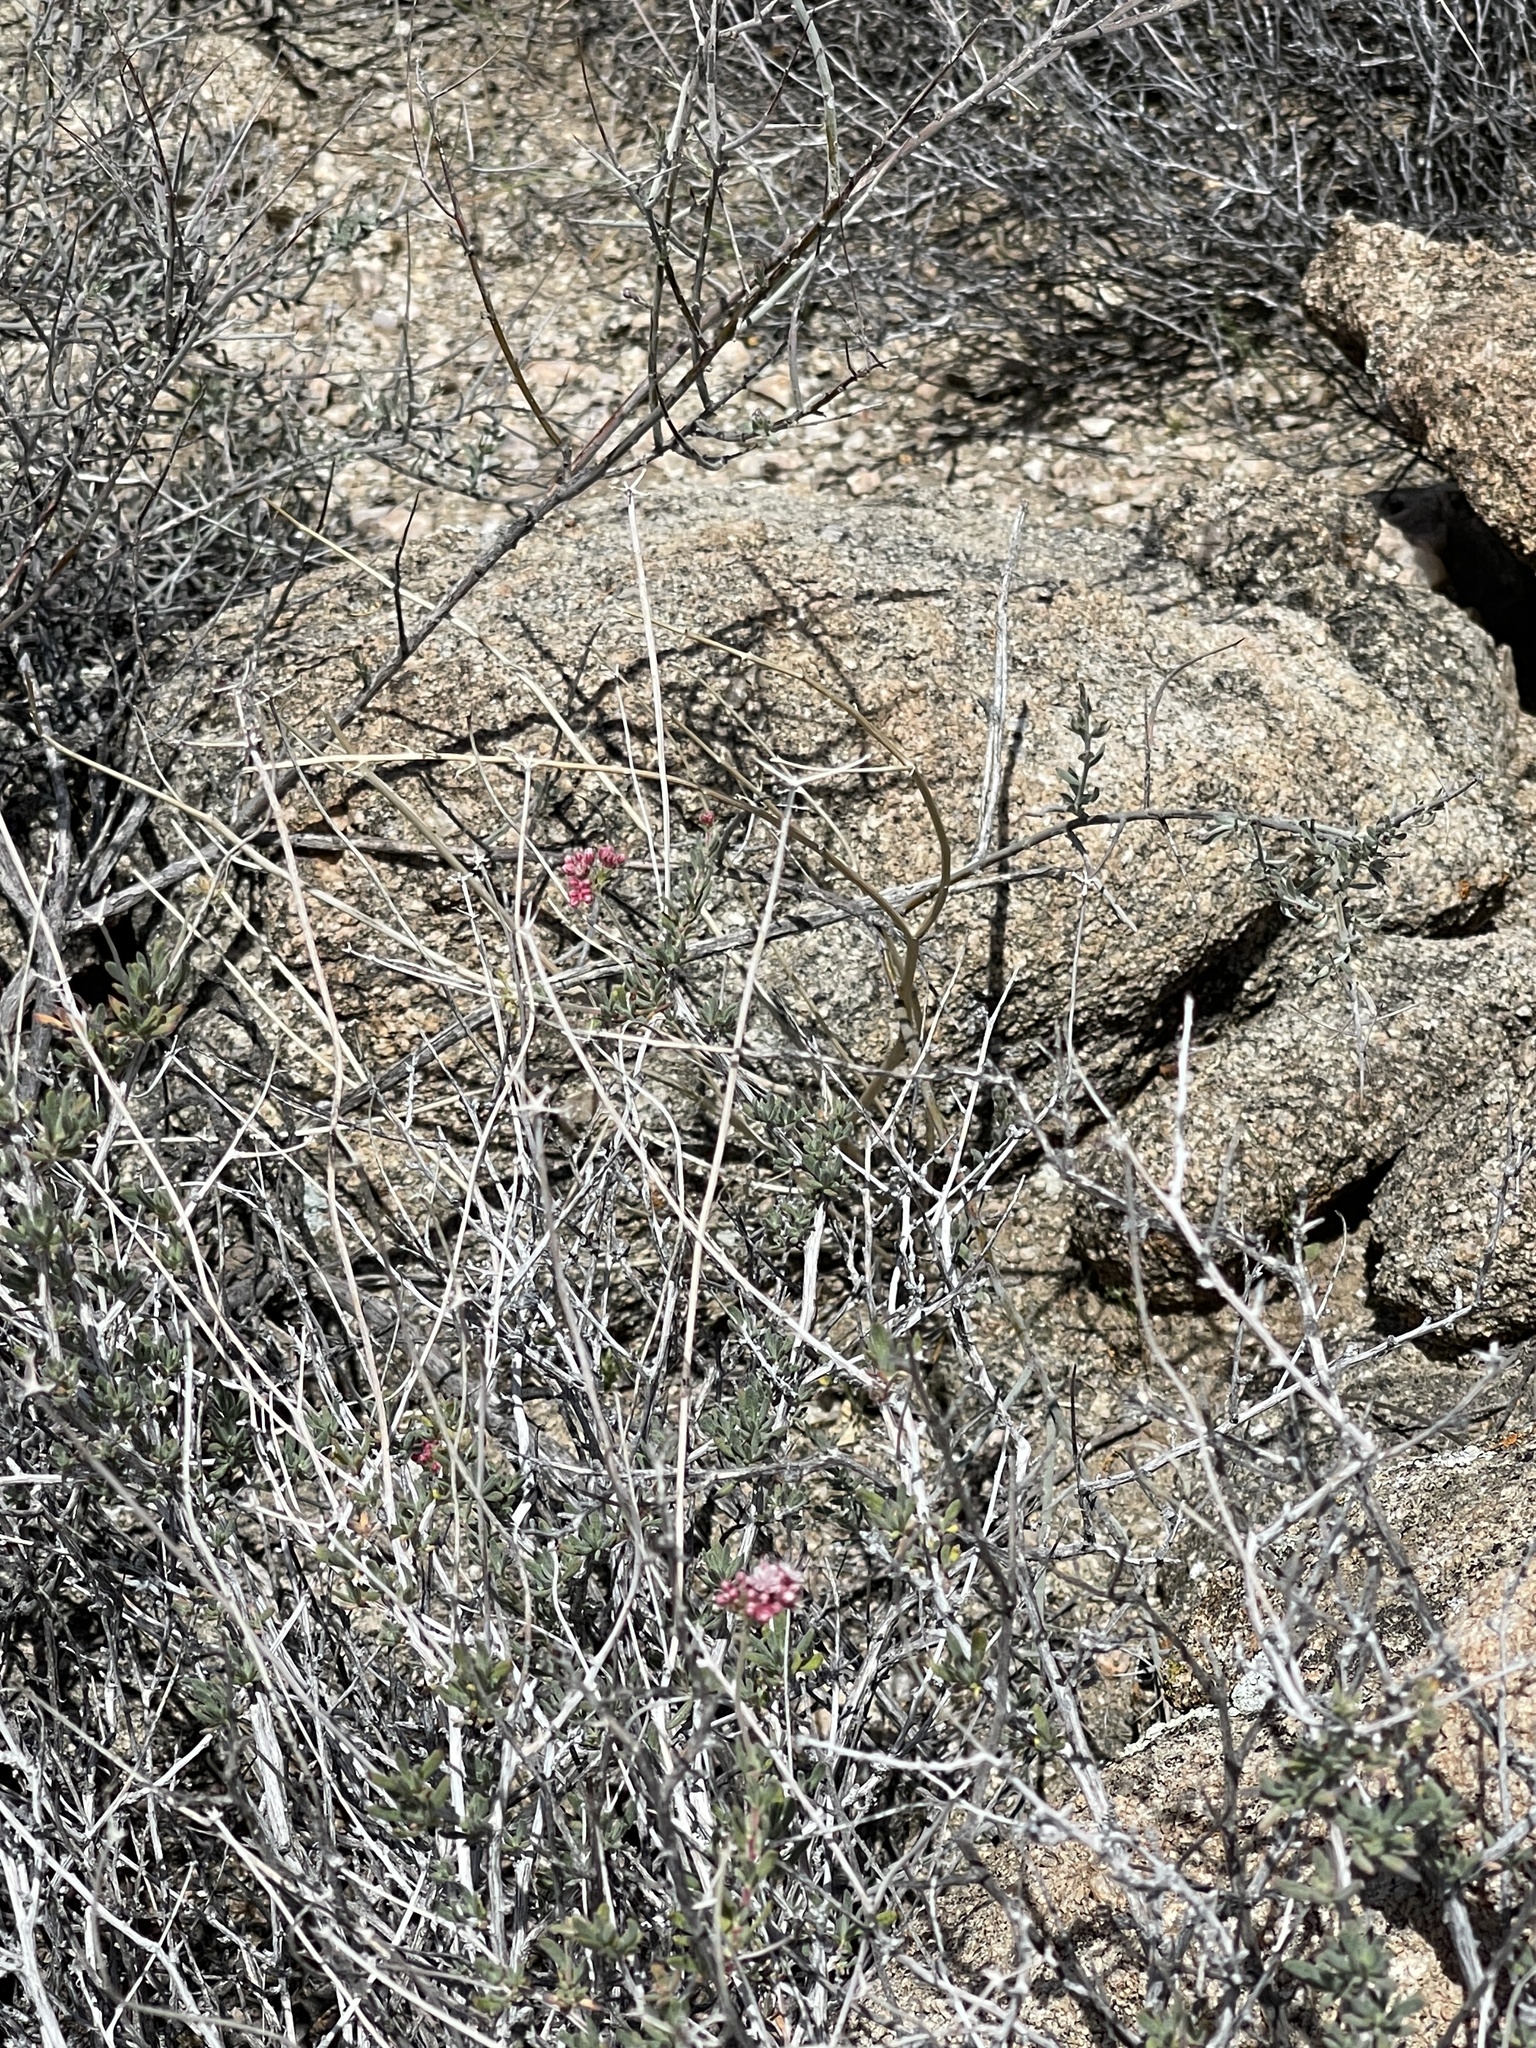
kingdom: Plantae
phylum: Tracheophyta
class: Magnoliopsida
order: Caryophyllales
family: Polygonaceae
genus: Eriogonum
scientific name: Eriogonum wrightii
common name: Bastard-sage
